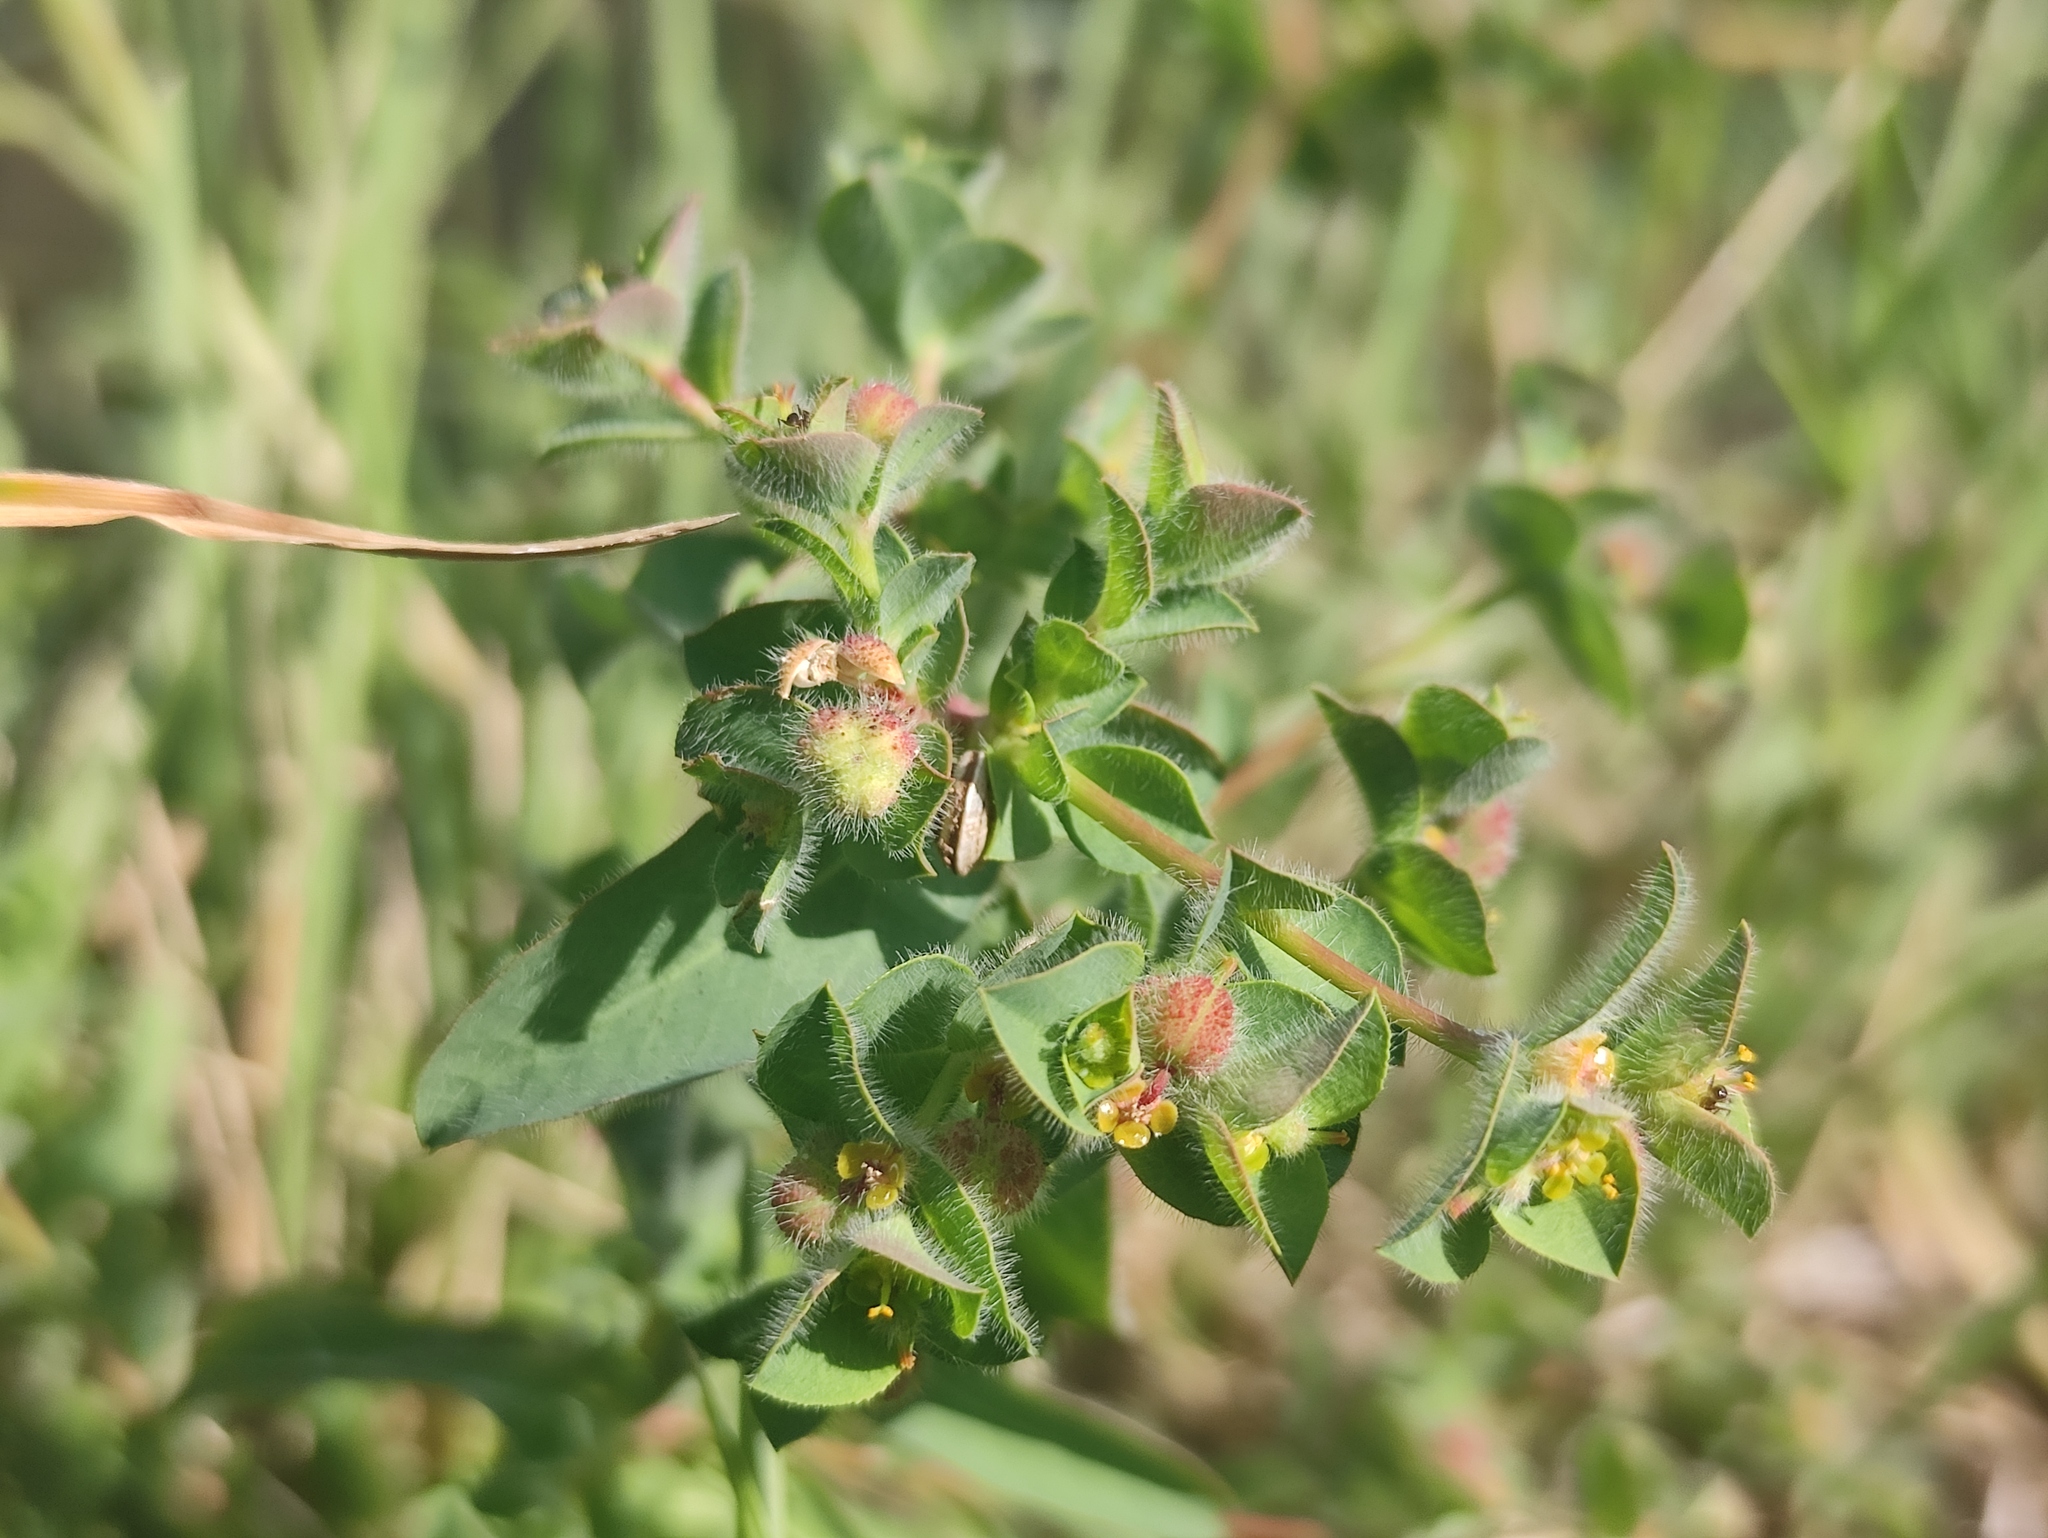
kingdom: Plantae
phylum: Tracheophyta
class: Magnoliopsida
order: Malpighiales
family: Euphorbiaceae
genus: Euphorbia
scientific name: Euphorbia hirsuta
